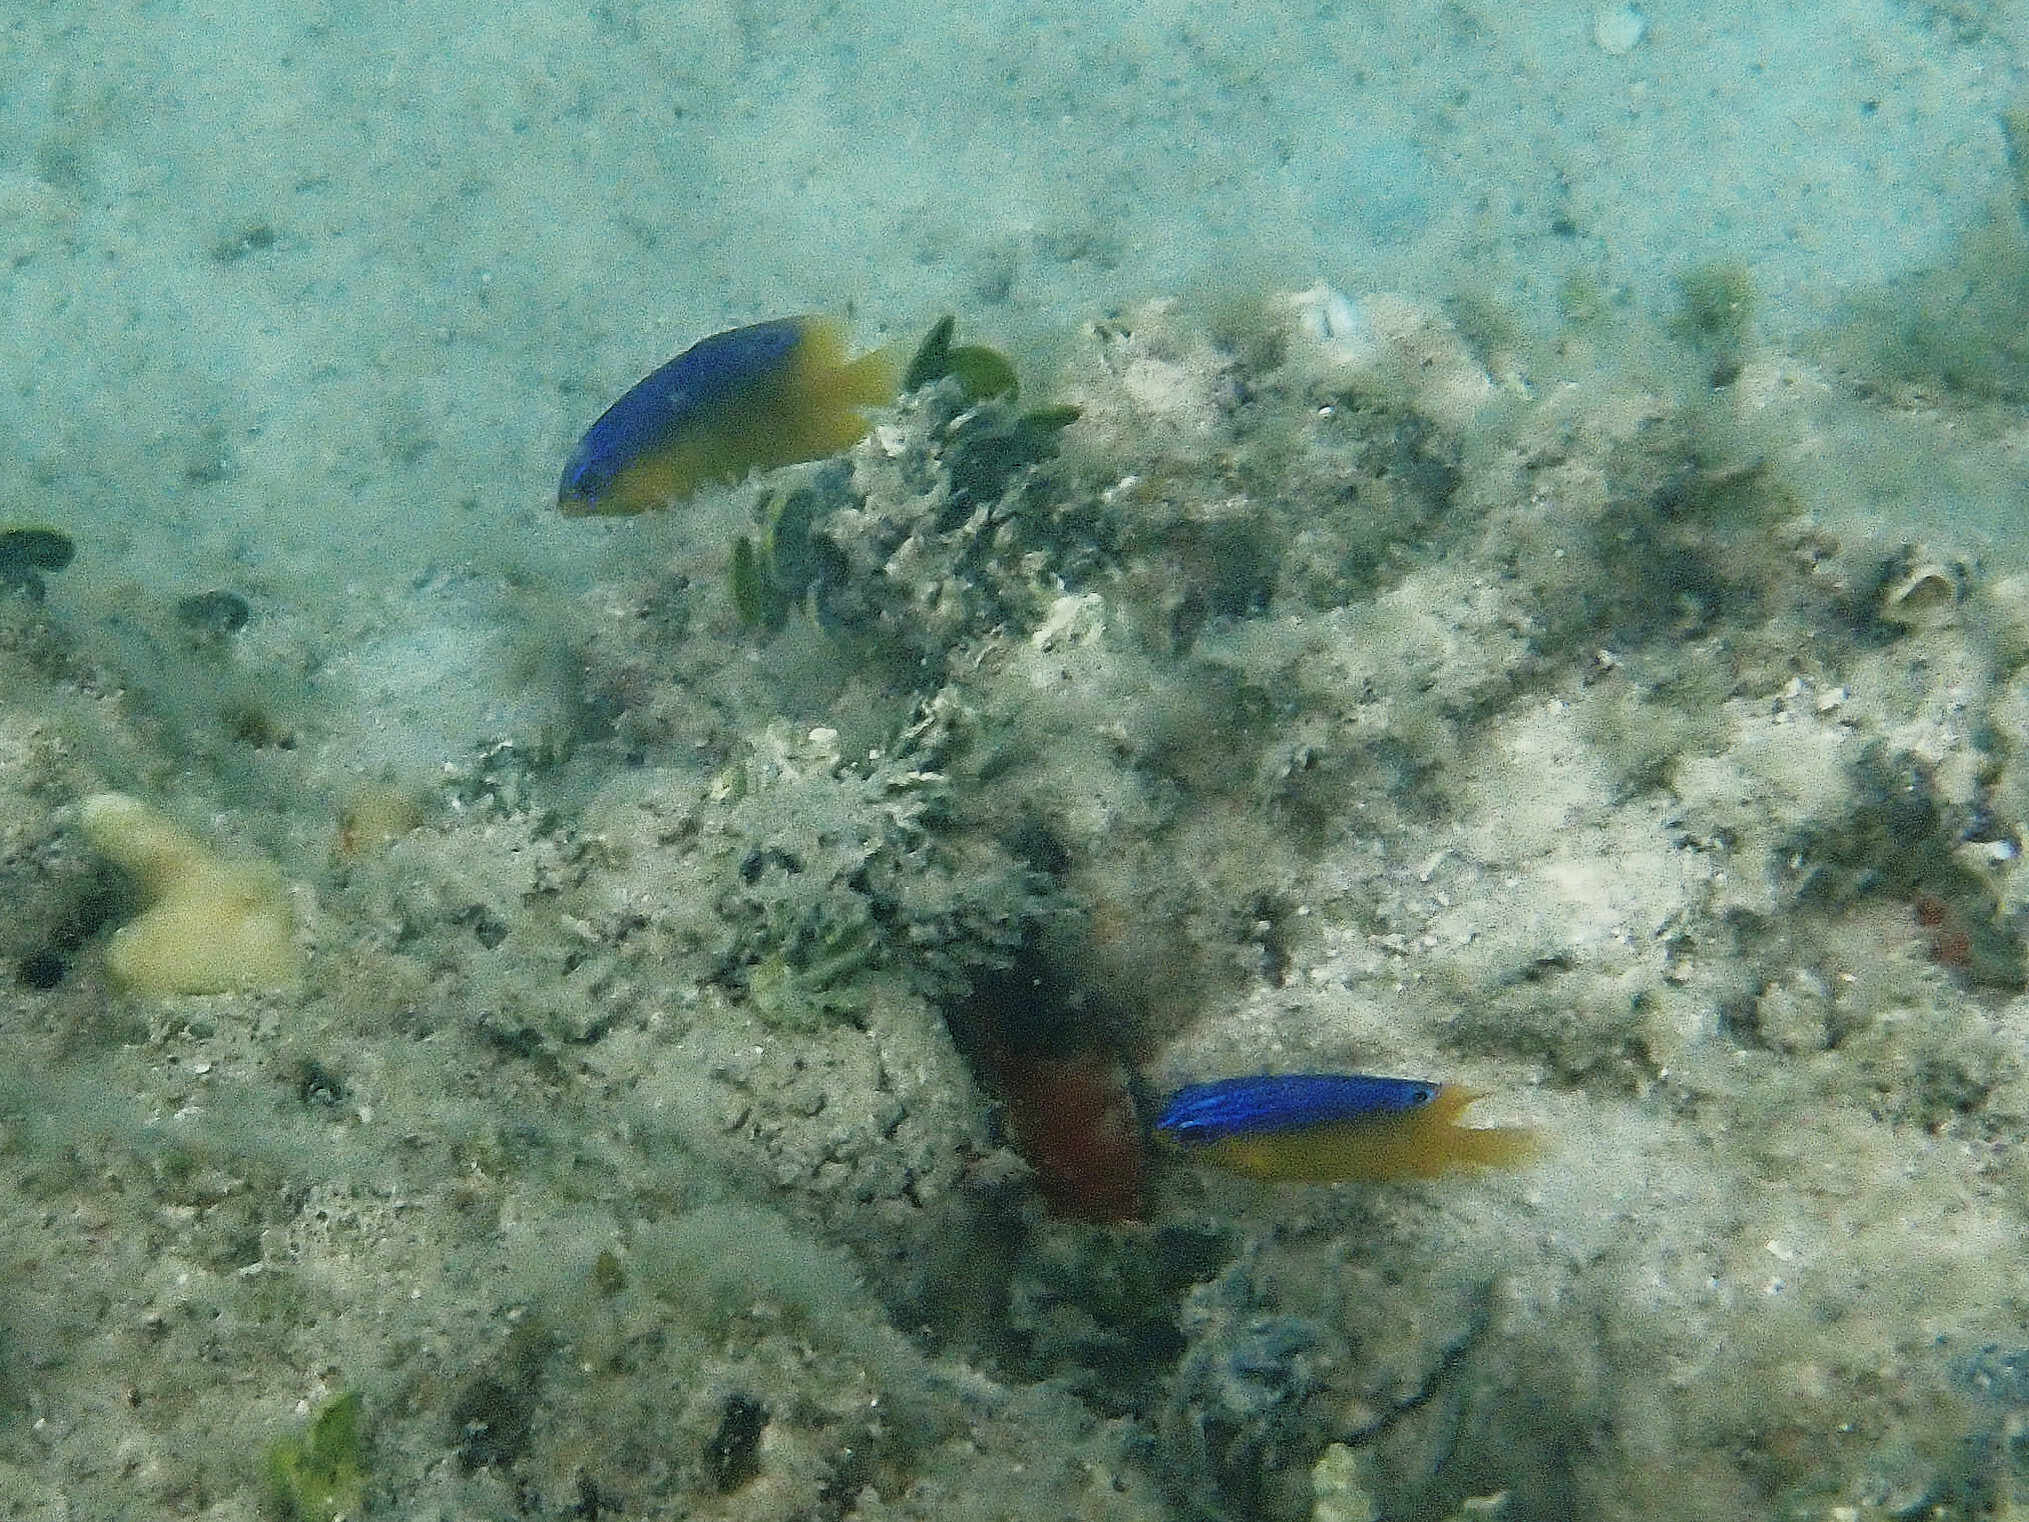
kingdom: Animalia
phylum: Chordata
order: Perciformes
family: Pomacentridae
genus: Stegastes
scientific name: Stegastes leucostictus
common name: Beaugregory
